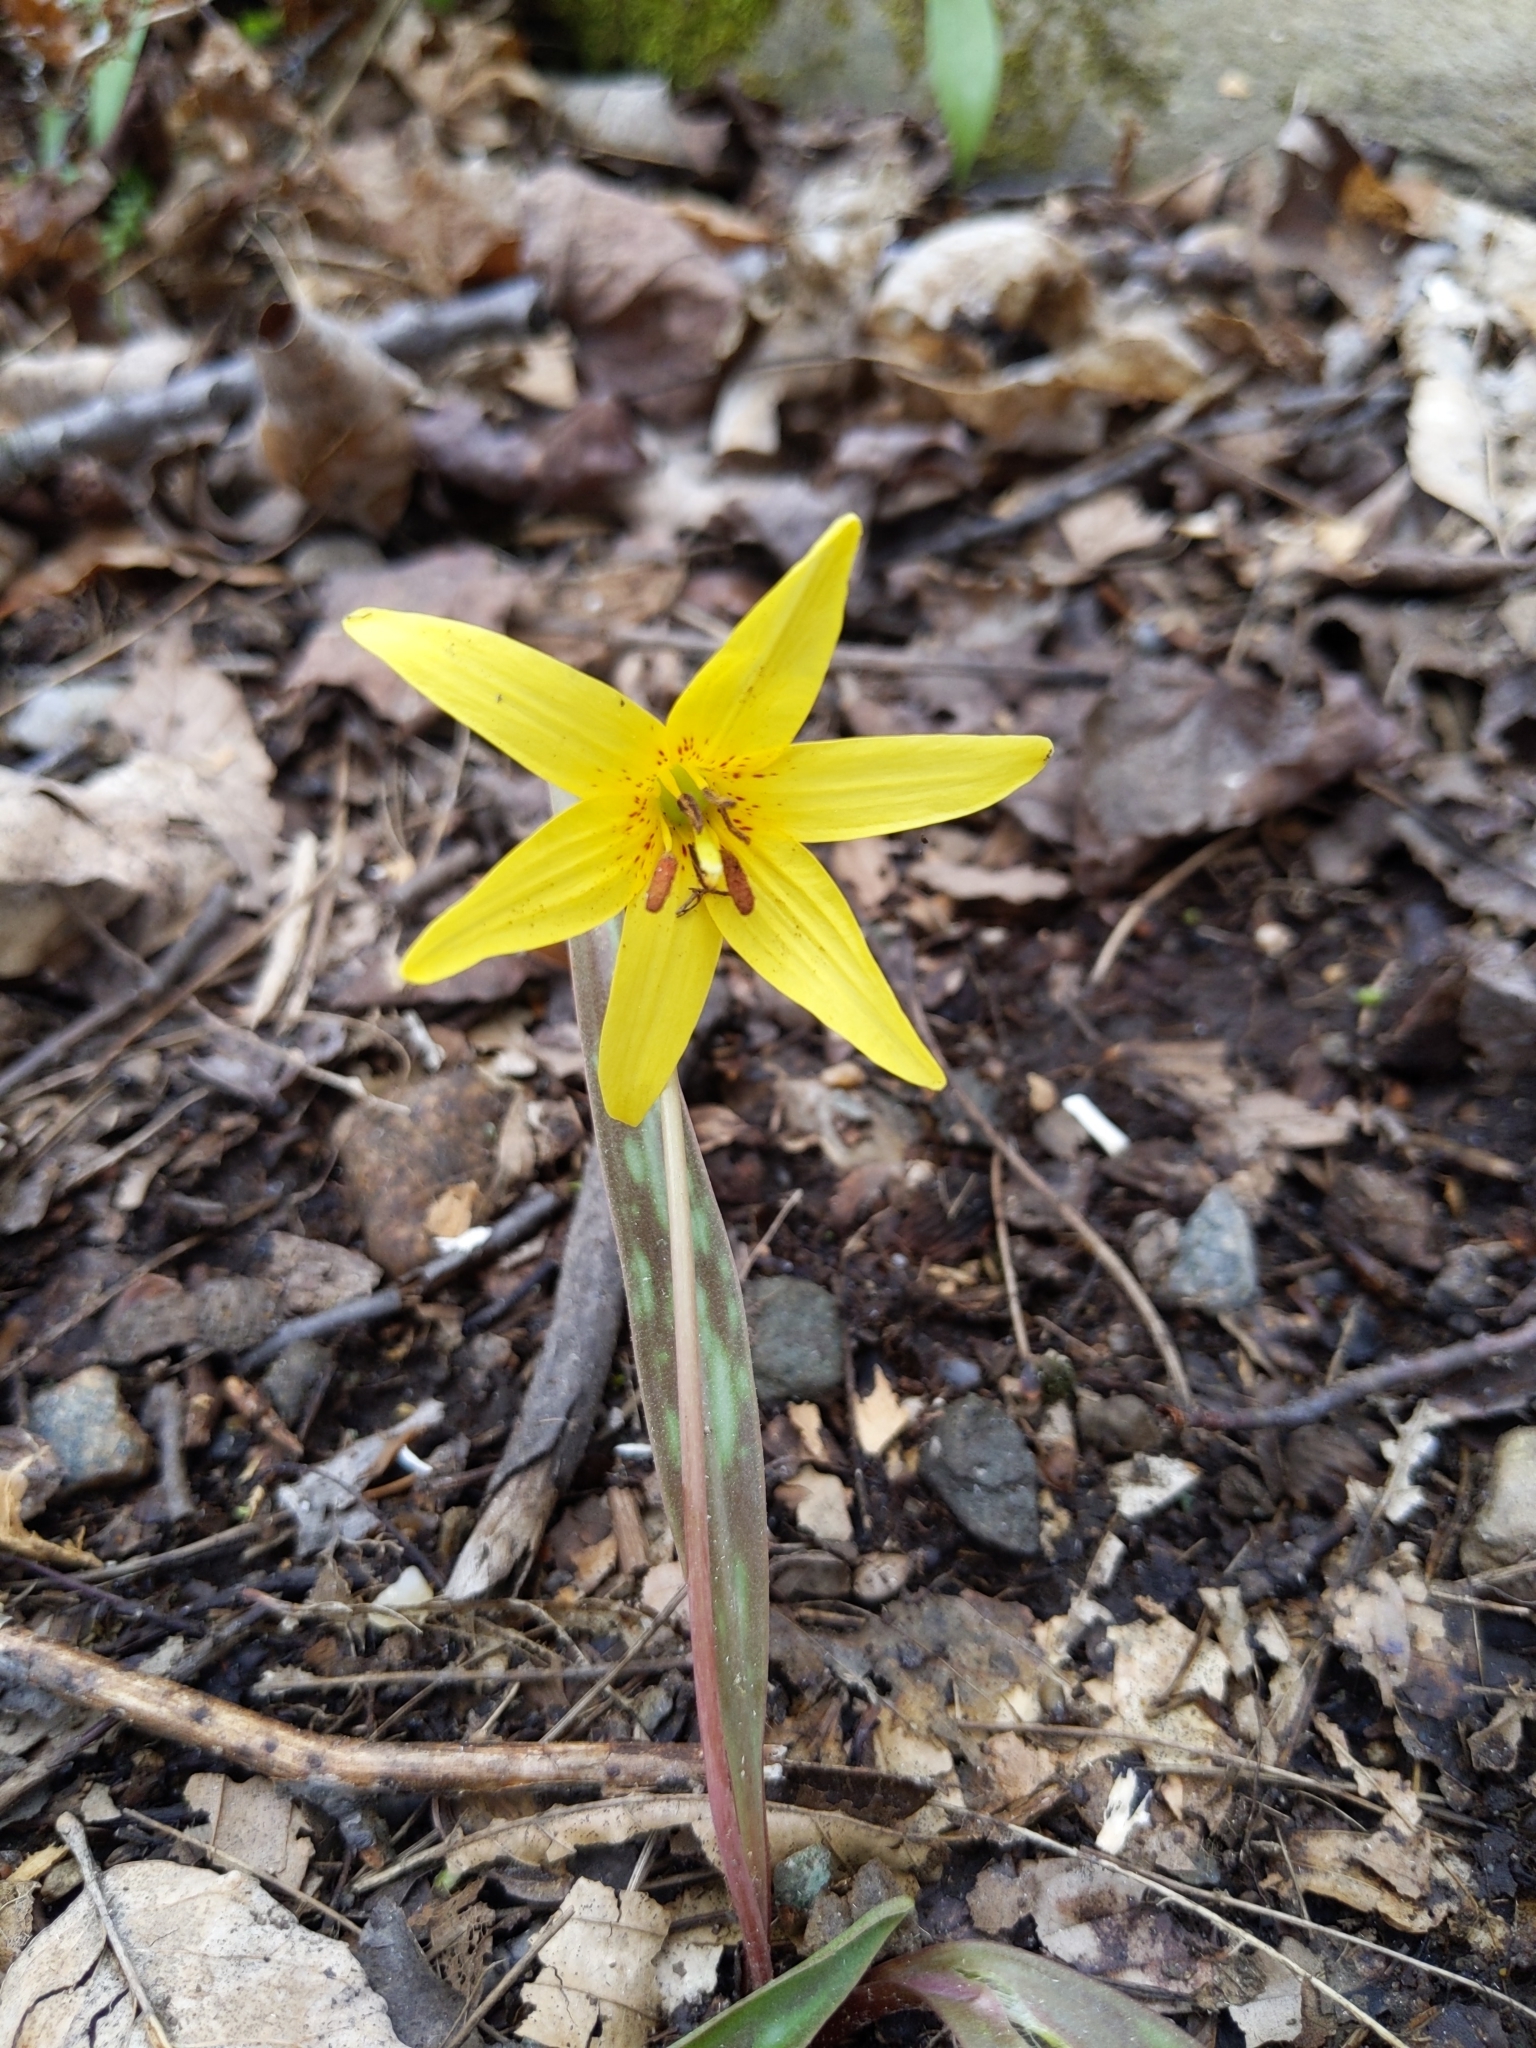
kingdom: Plantae
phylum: Tracheophyta
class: Liliopsida
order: Liliales
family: Liliaceae
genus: Erythronium
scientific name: Erythronium americanum
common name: Yellow adder's-tongue
